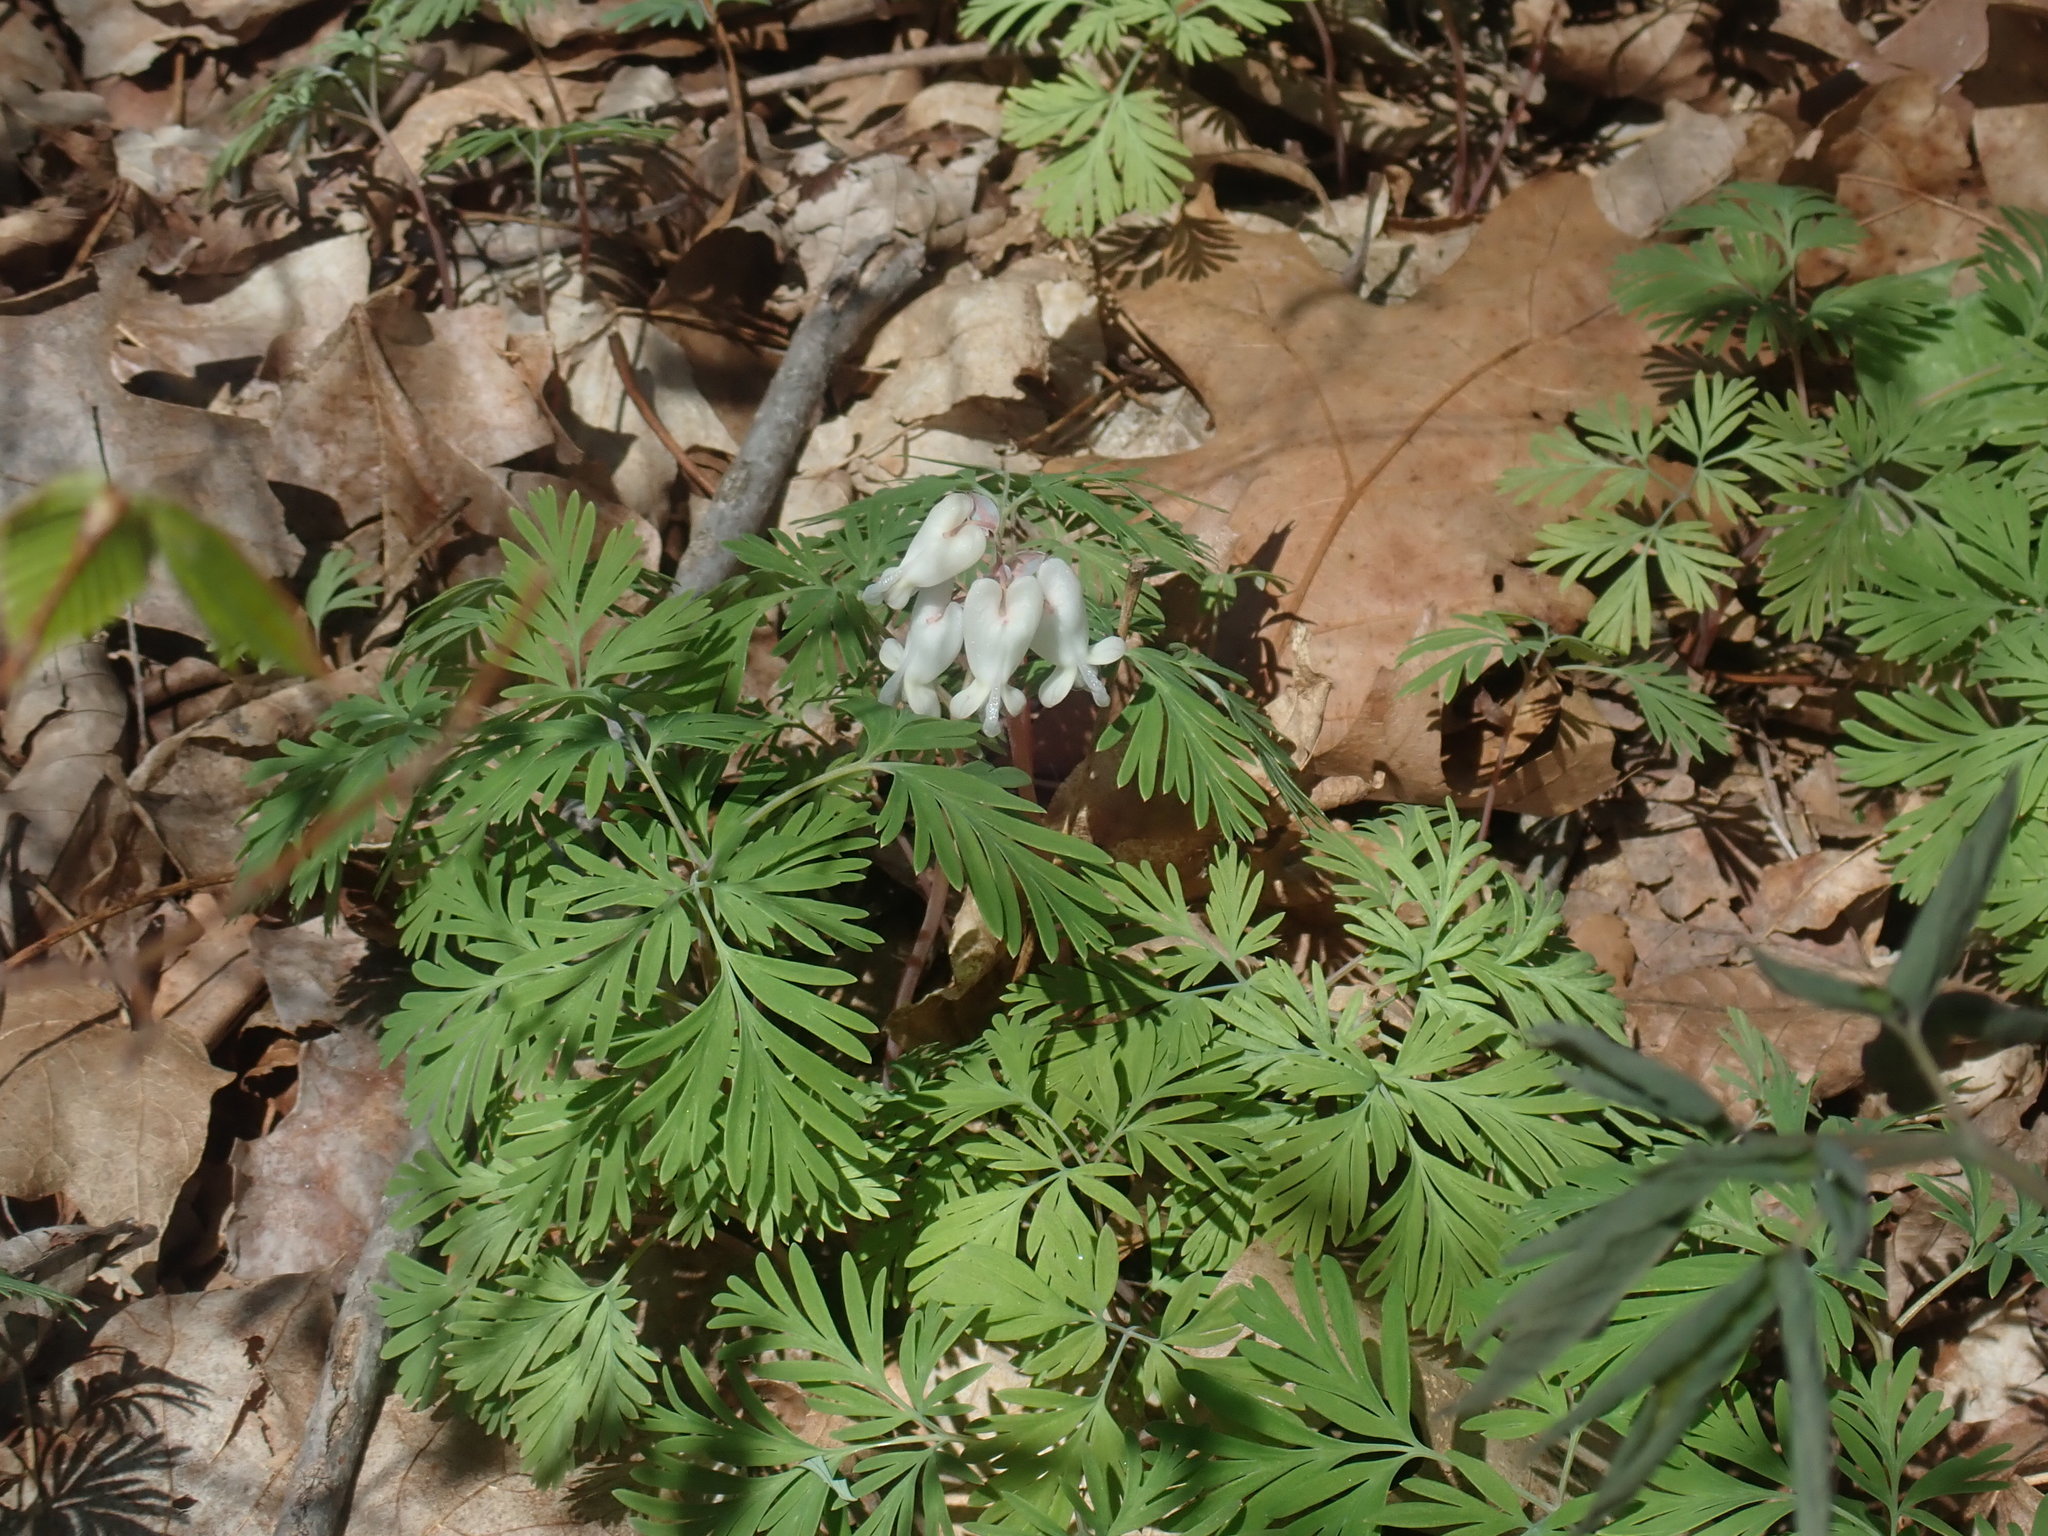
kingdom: Plantae
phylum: Tracheophyta
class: Magnoliopsida
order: Ranunculales
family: Papaveraceae
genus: Dicentra
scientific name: Dicentra canadensis
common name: Squirrel-corn
